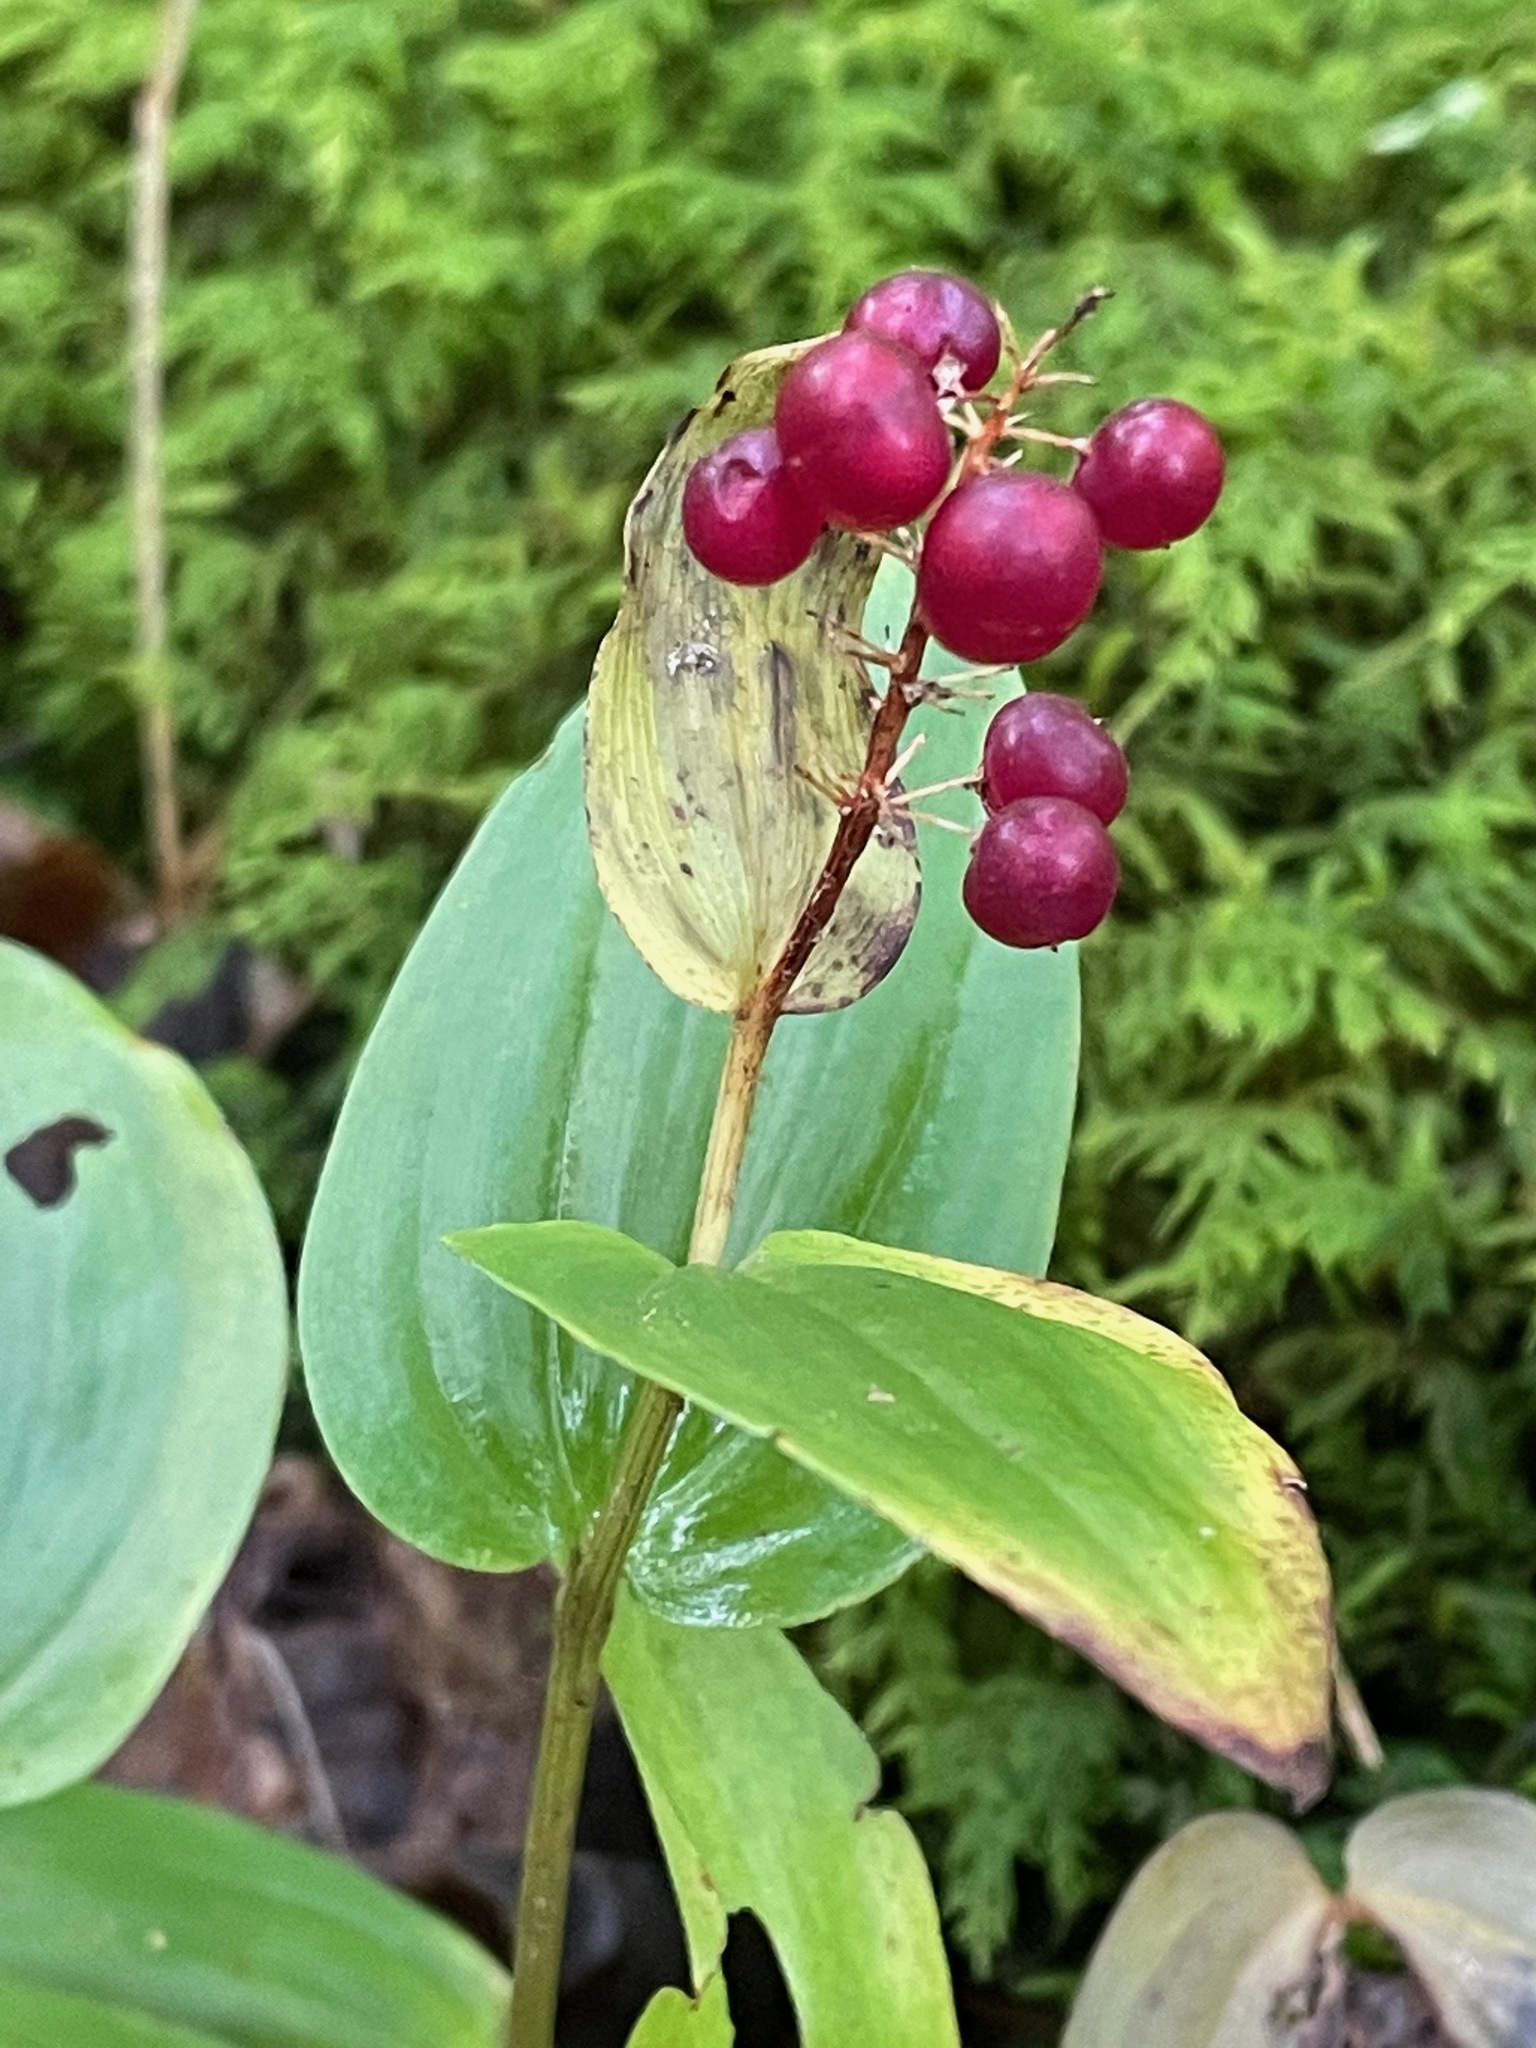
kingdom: Plantae
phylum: Tracheophyta
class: Liliopsida
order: Asparagales
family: Asparagaceae
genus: Maianthemum
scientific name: Maianthemum canadense
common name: False lily-of-the-valley
